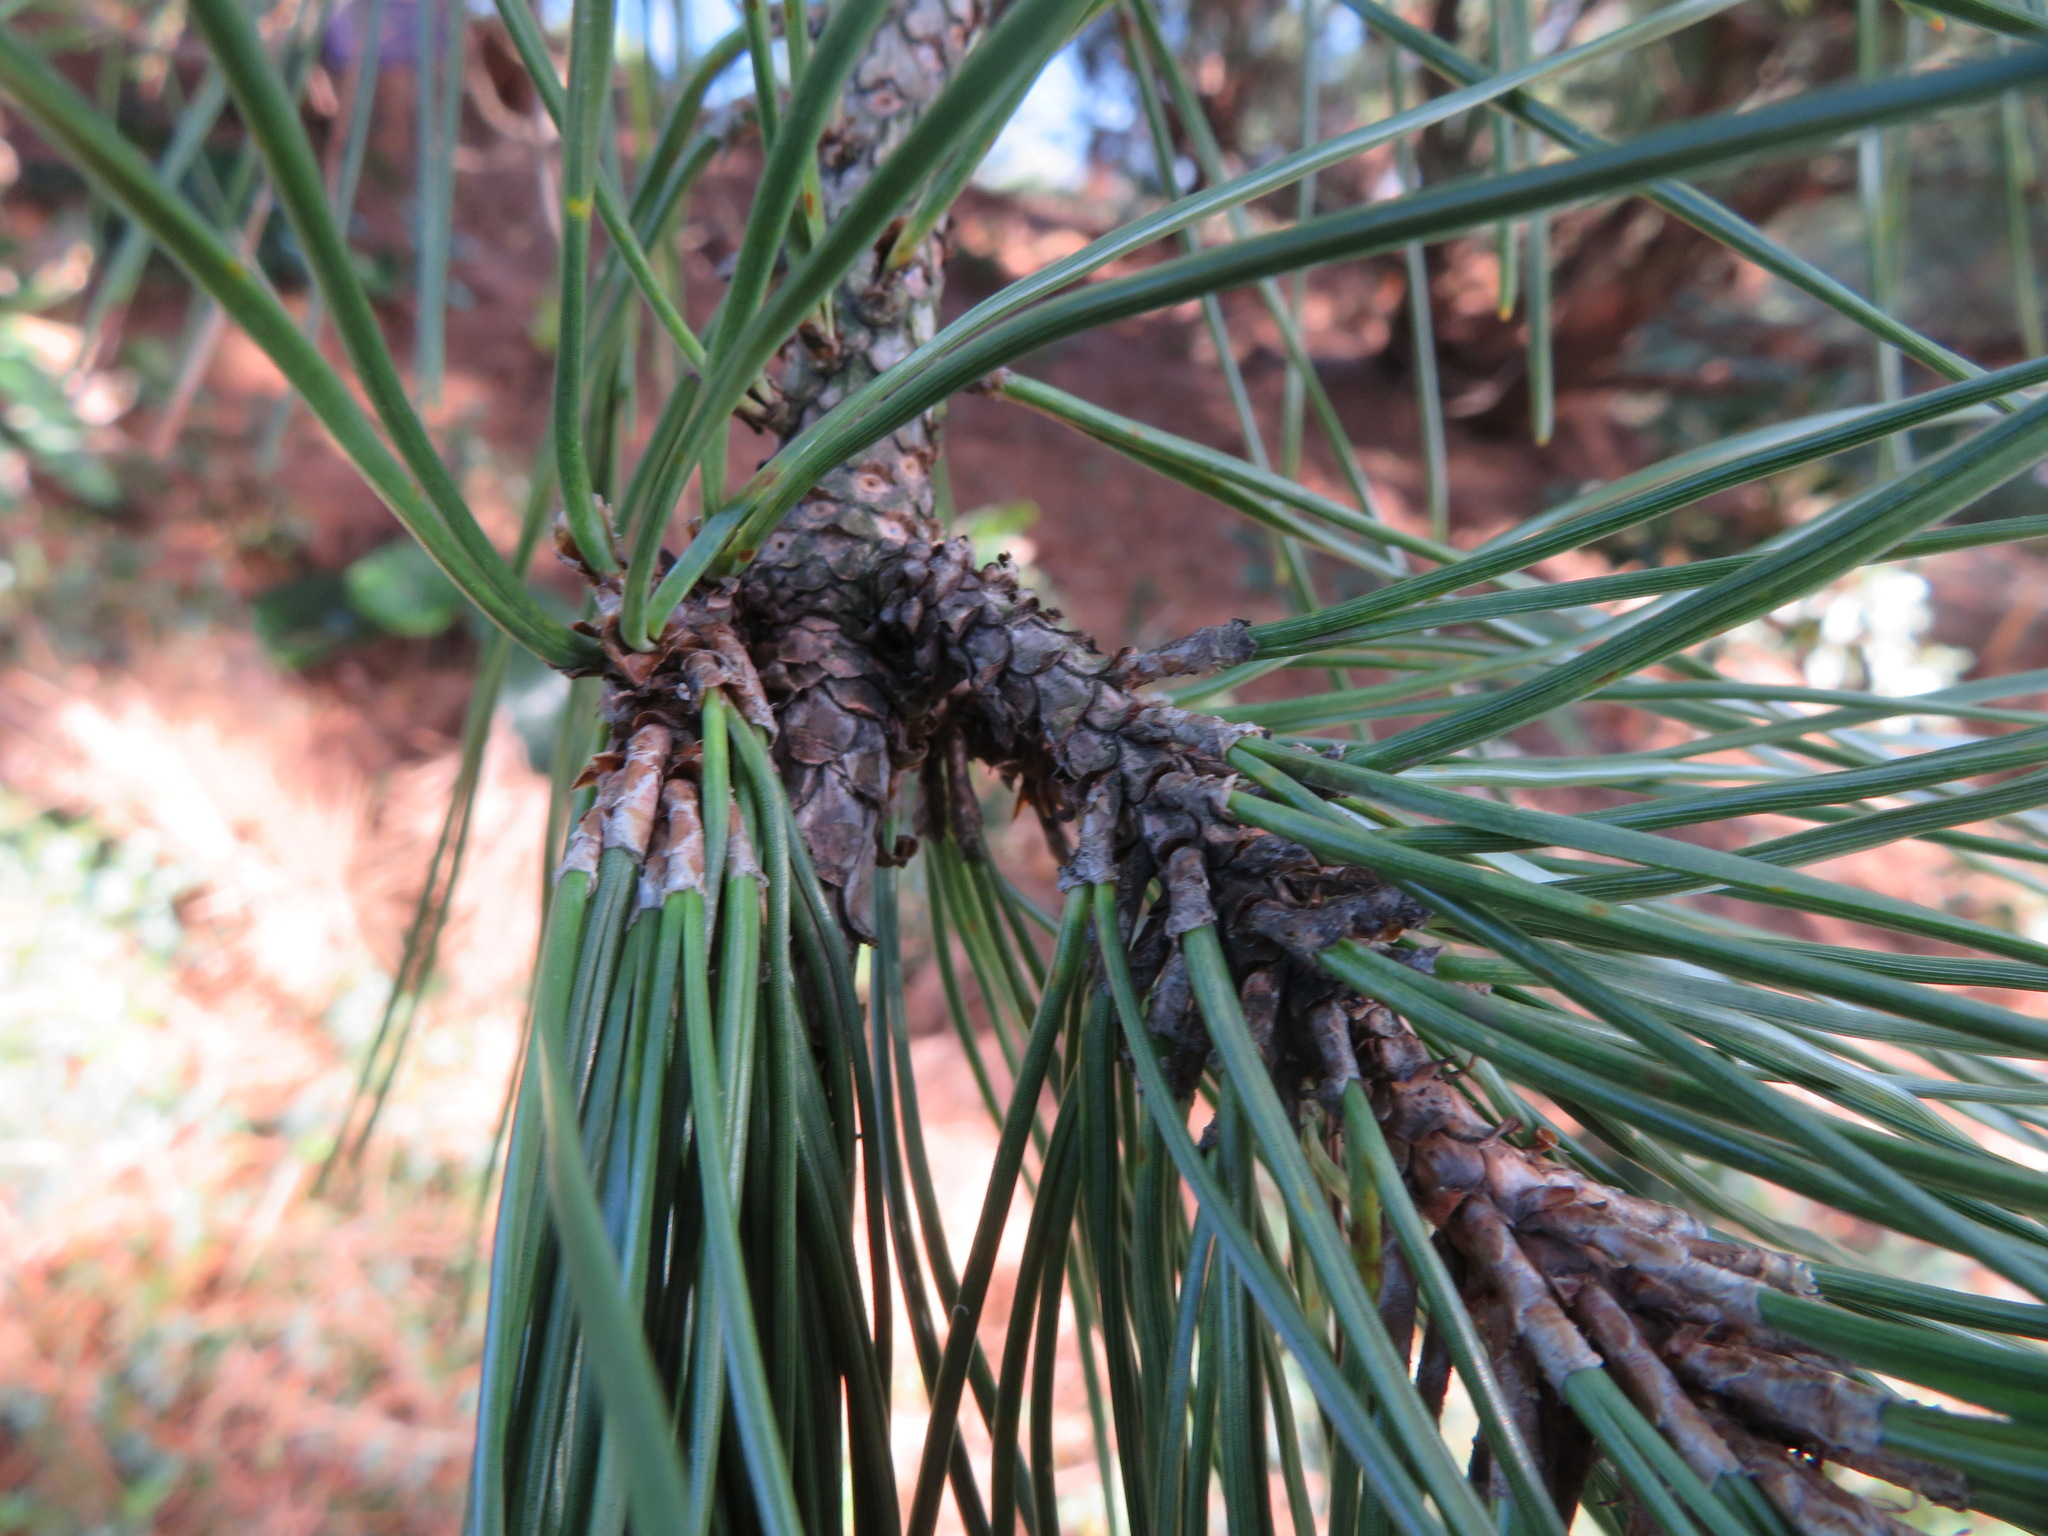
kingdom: Plantae
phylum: Tracheophyta
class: Pinopsida
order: Pinales
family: Pinaceae
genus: Pinus
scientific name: Pinus thunbergii
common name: Japanese black pine
